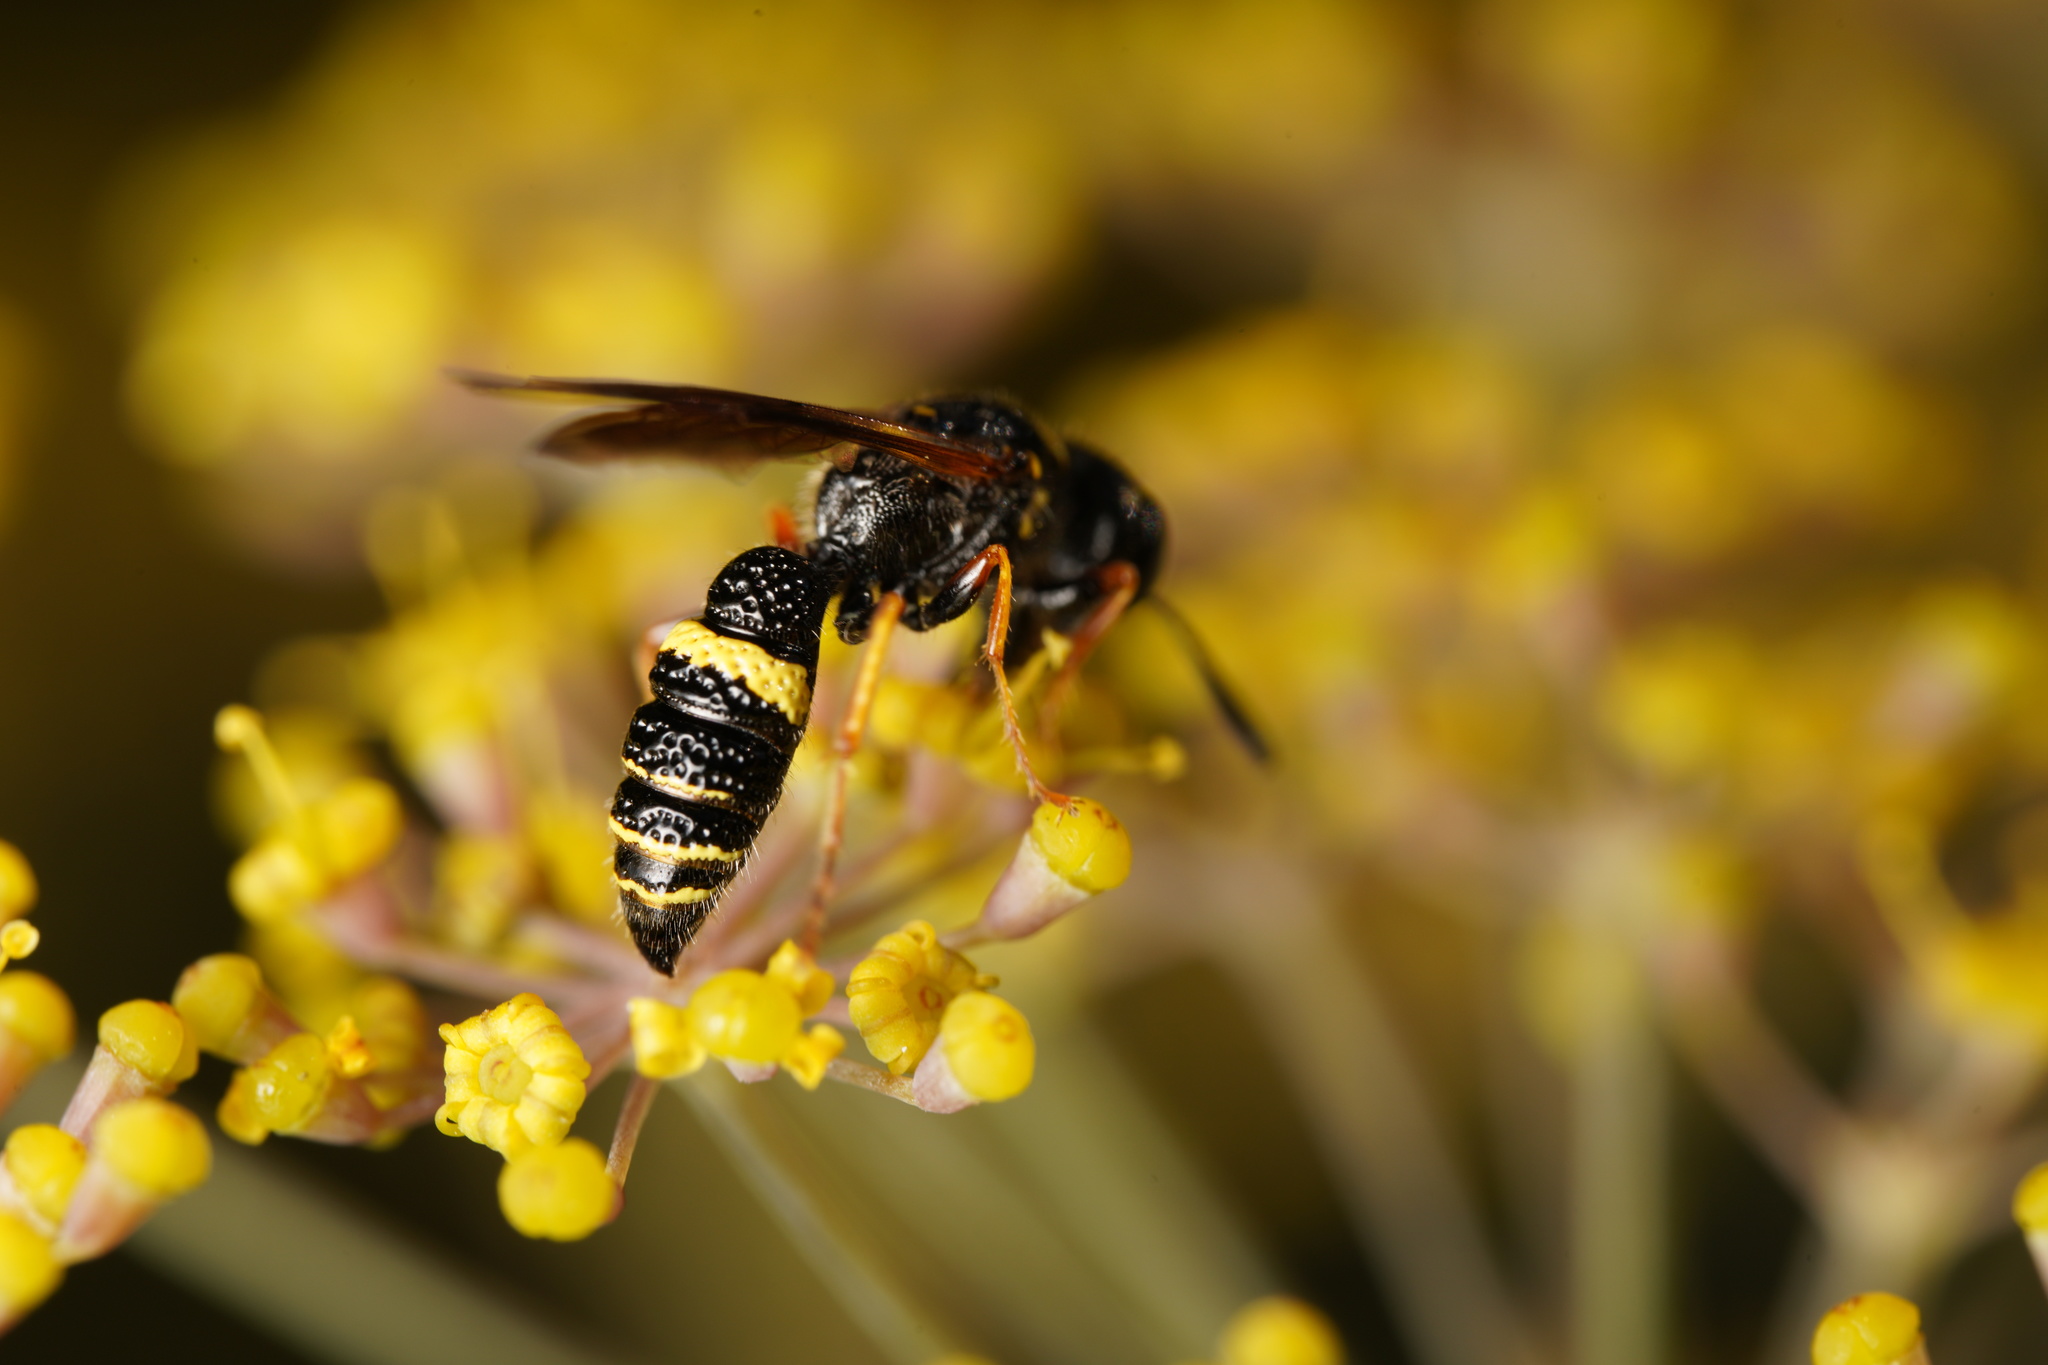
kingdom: Animalia
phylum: Arthropoda
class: Insecta
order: Hymenoptera
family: Crabronidae
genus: Philanthus
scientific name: Philanthus gibbosus
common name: Humped beewolf
